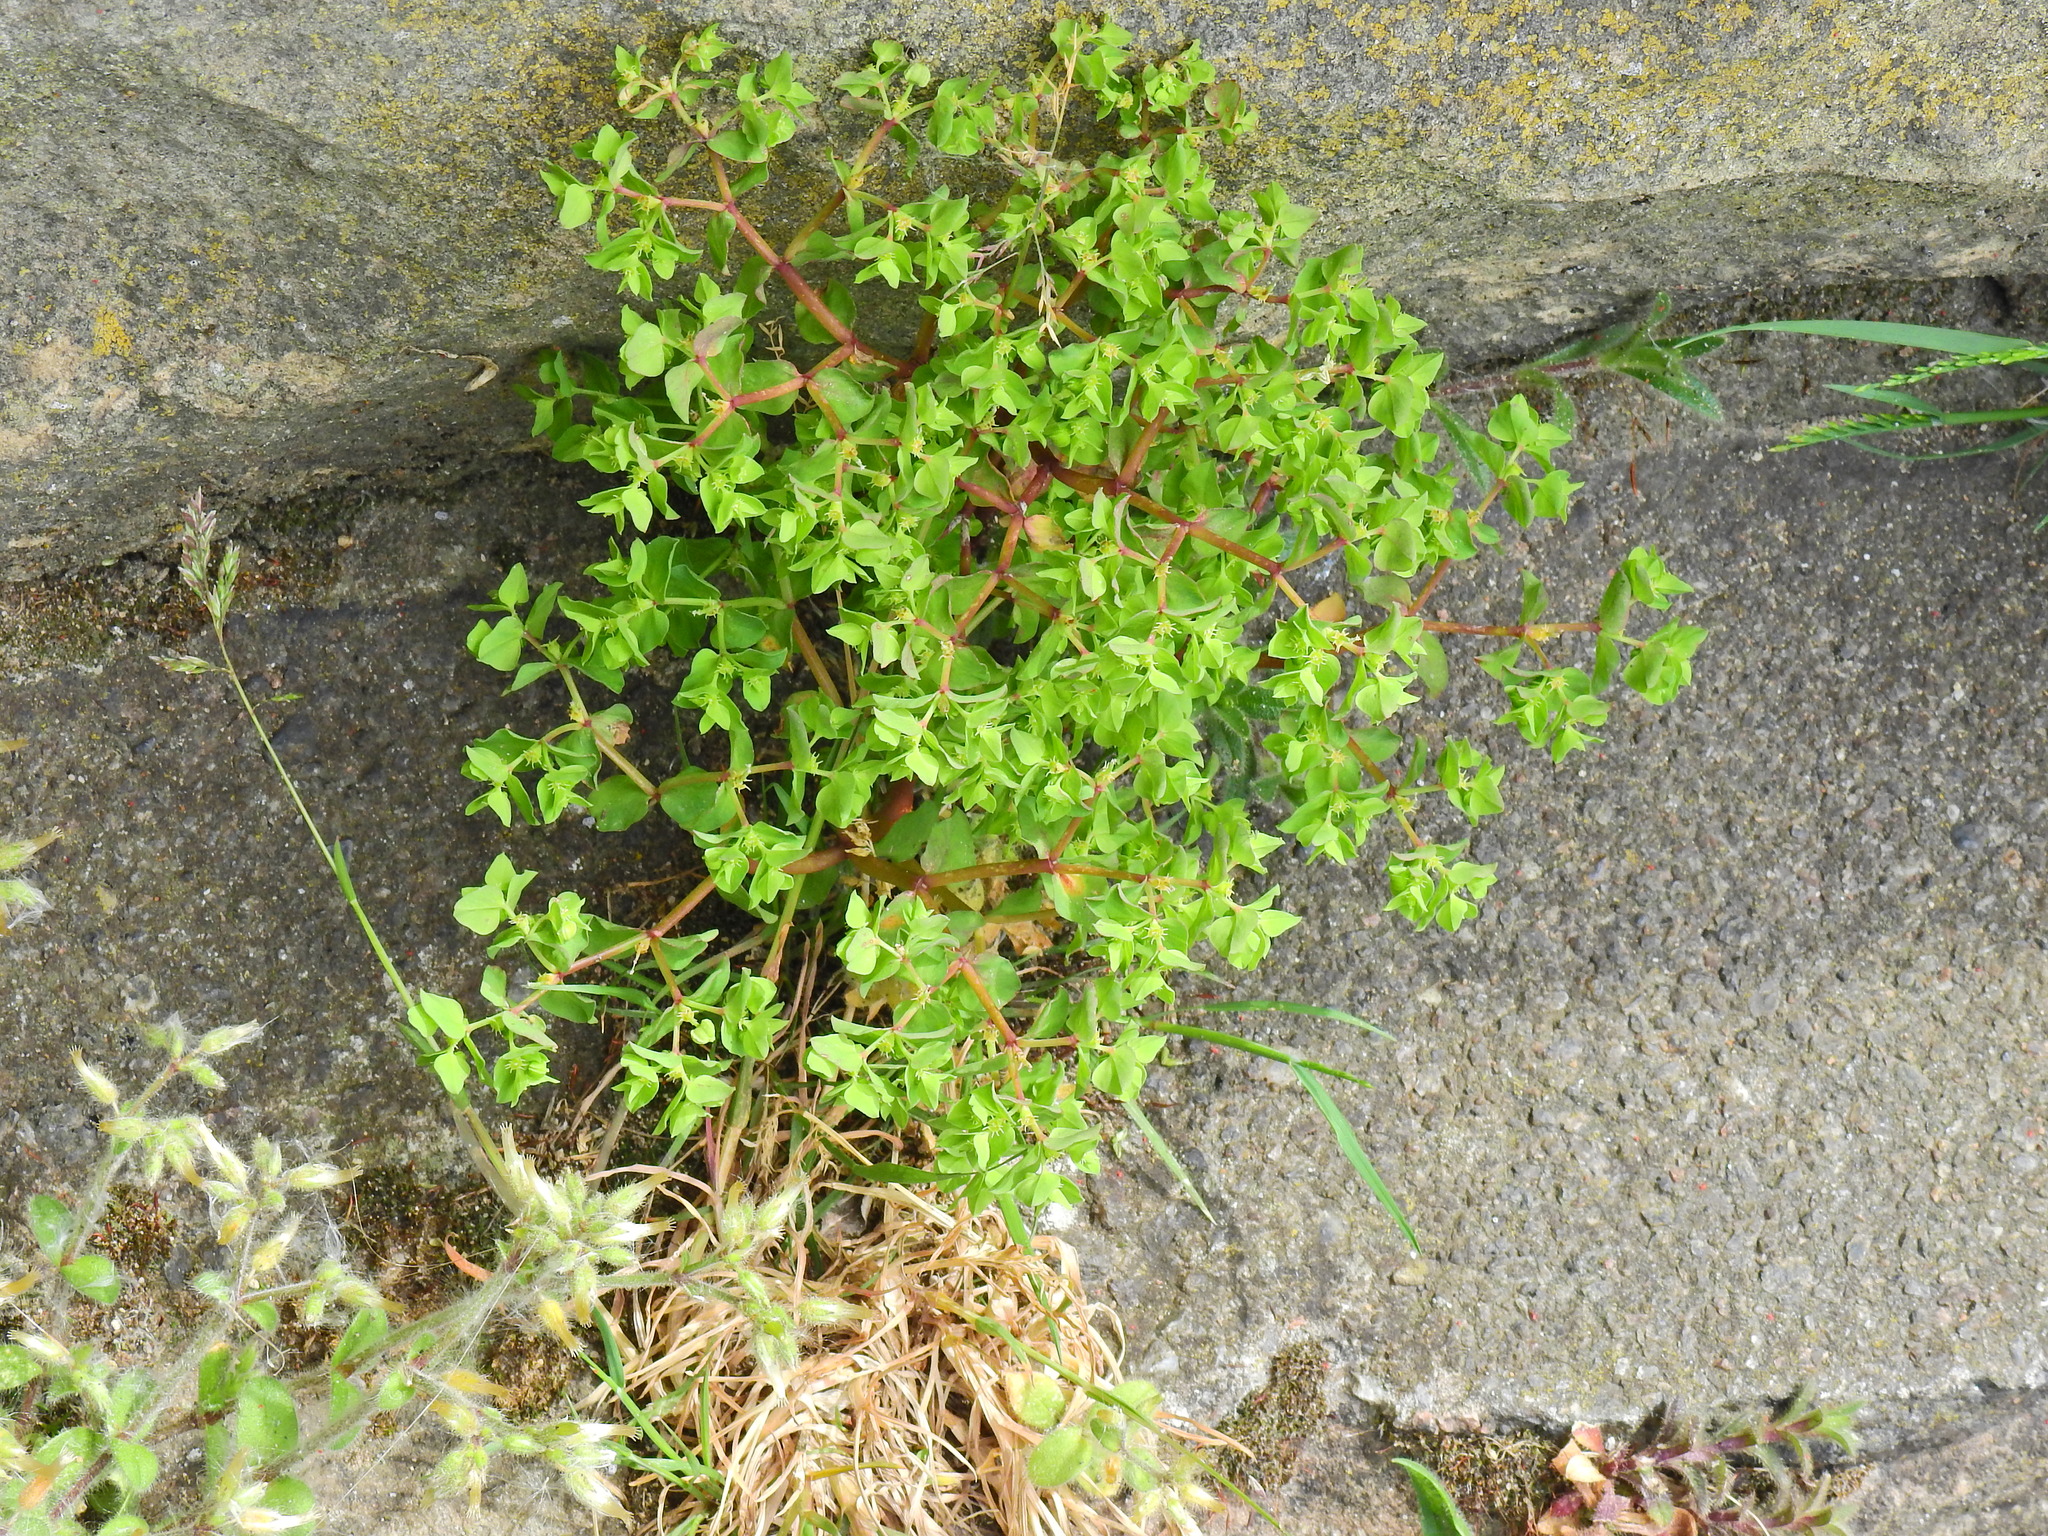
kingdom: Plantae
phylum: Tracheophyta
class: Magnoliopsida
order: Malpighiales
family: Euphorbiaceae
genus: Euphorbia
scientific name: Euphorbia peplus
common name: Petty spurge
